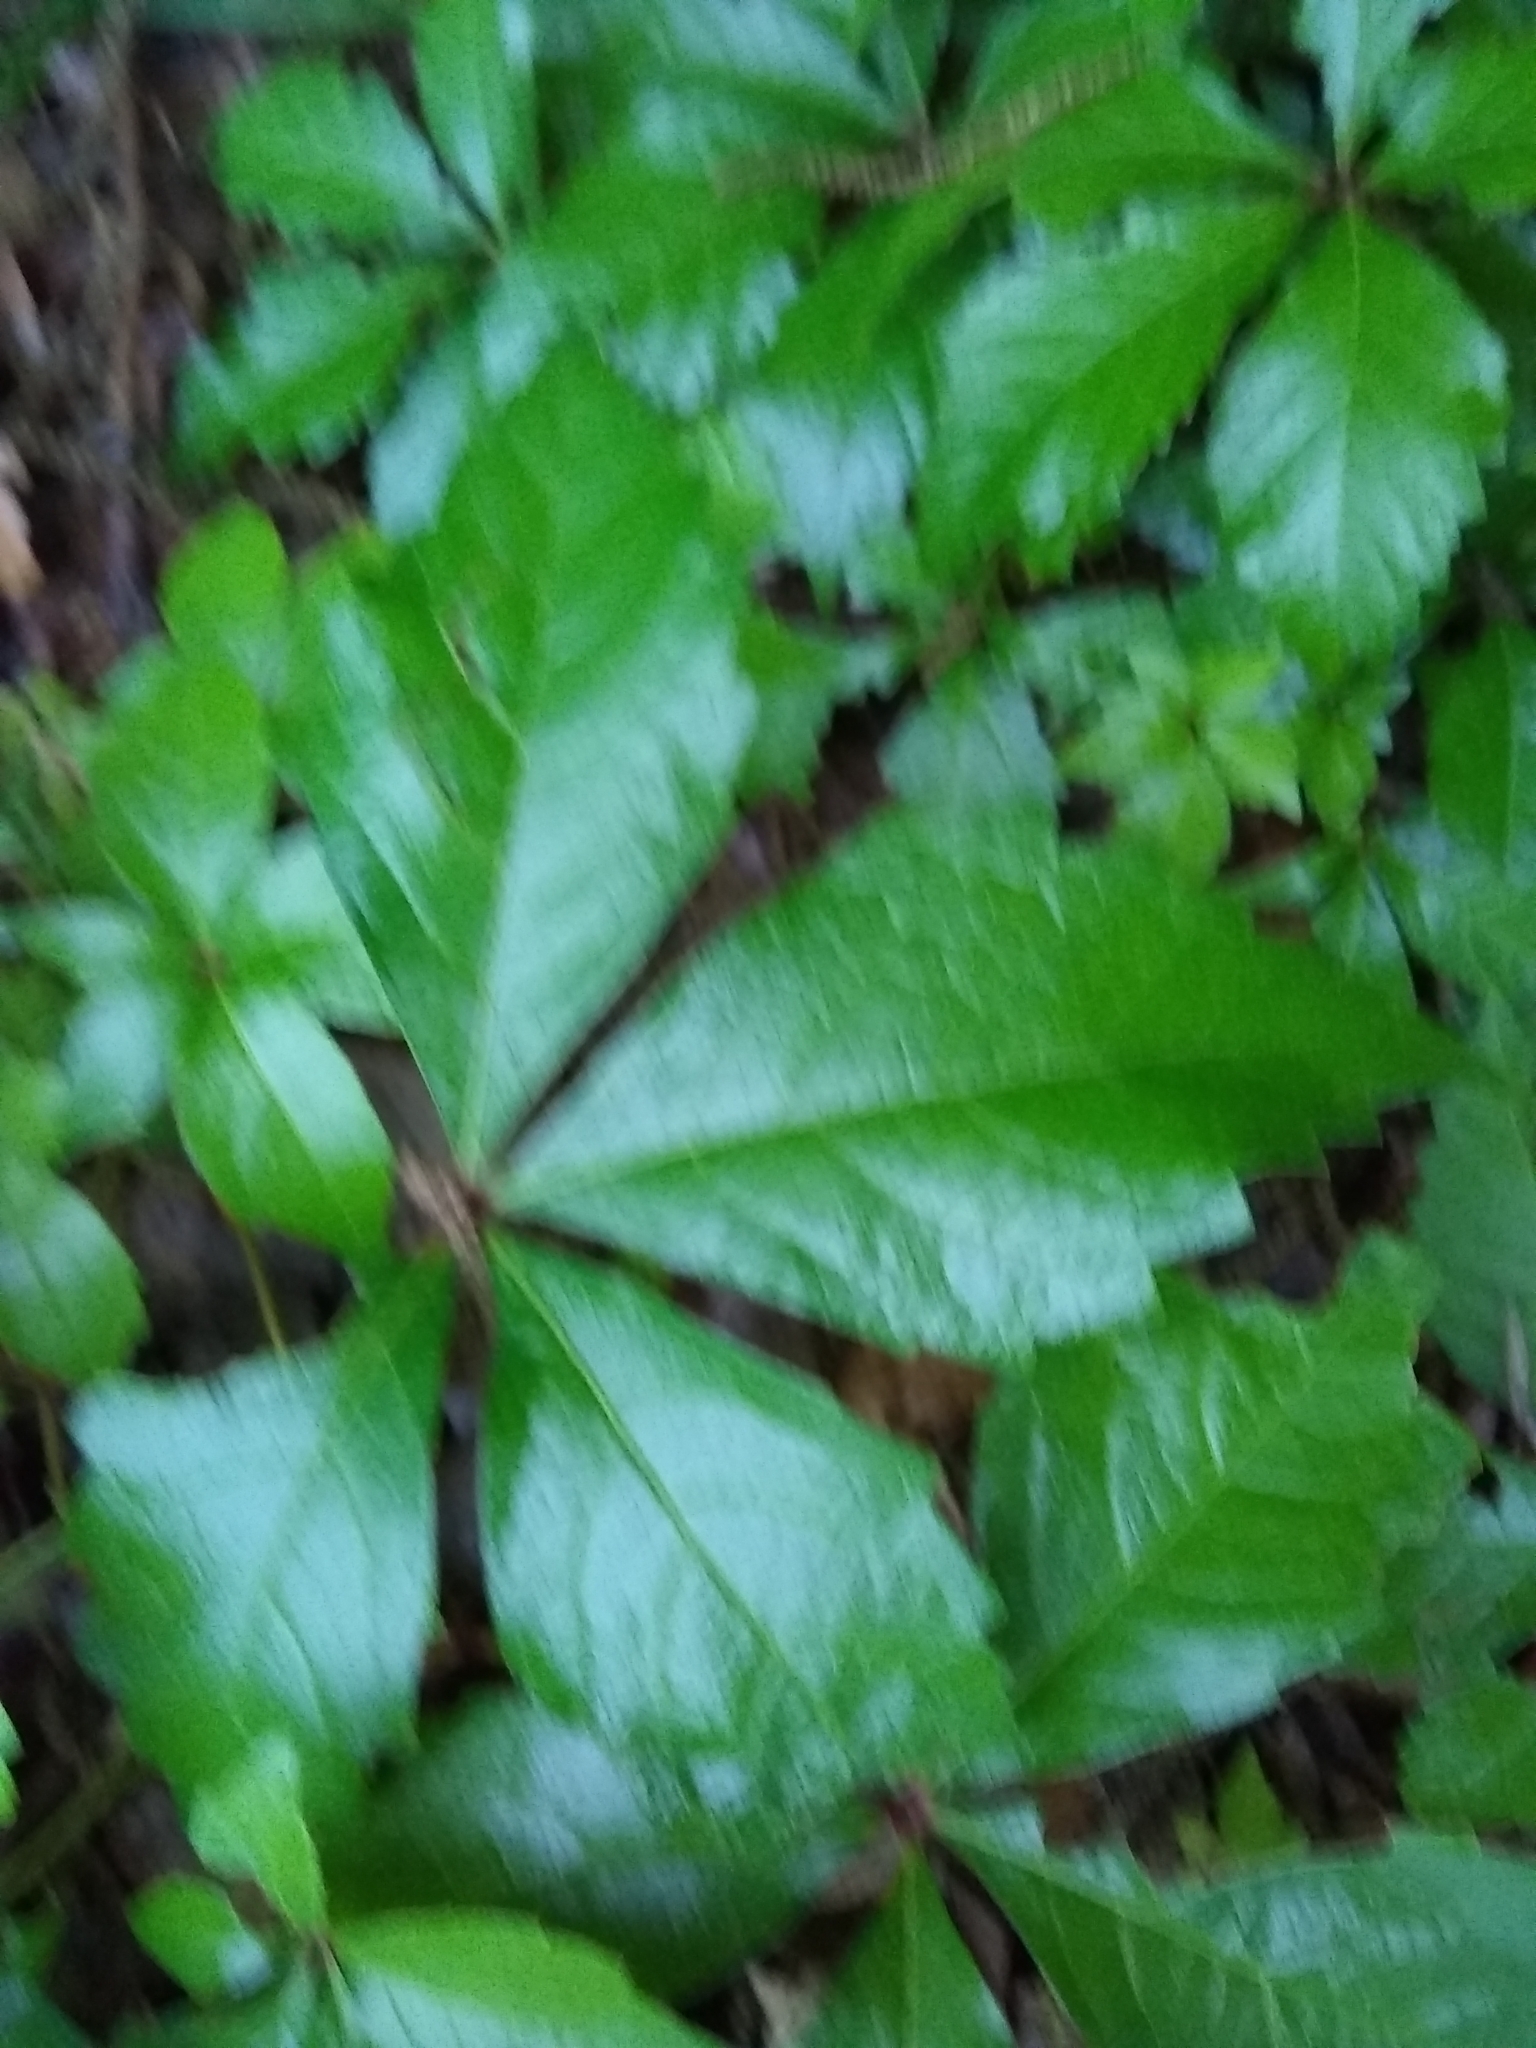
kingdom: Plantae
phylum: Tracheophyta
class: Magnoliopsida
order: Vitales
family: Vitaceae
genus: Parthenocissus
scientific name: Parthenocissus quinquefolia
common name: Virginia-creeper
